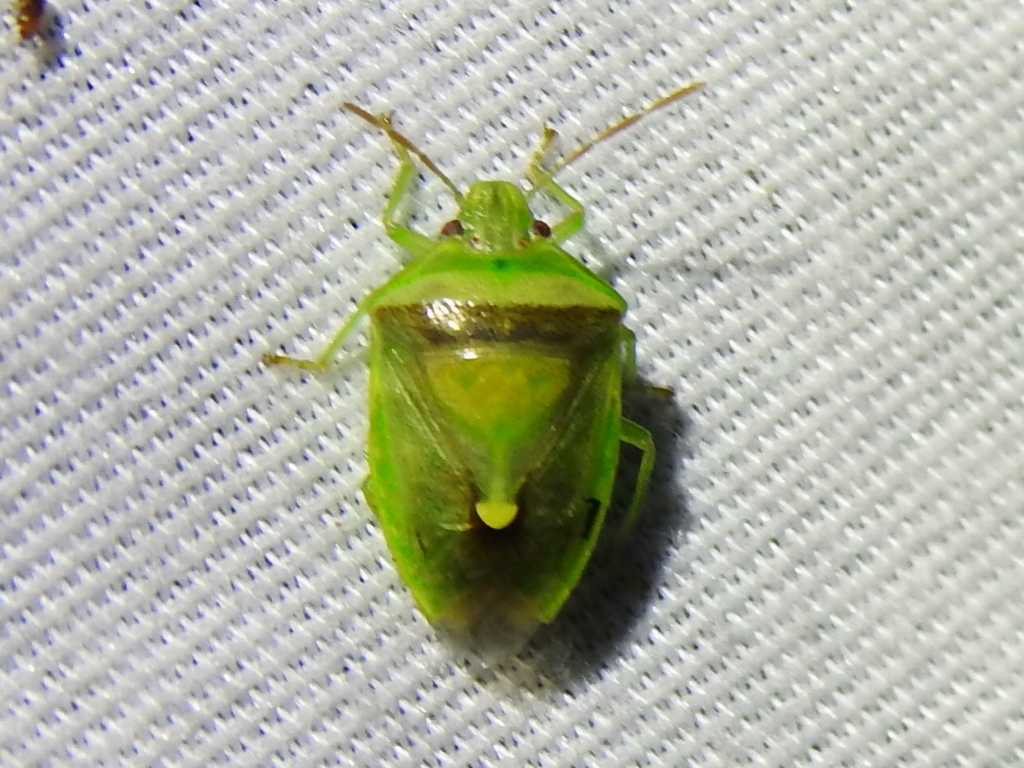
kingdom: Animalia
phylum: Arthropoda
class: Insecta
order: Hemiptera
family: Pentatomidae
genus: Banasa
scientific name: Banasa dimidiata
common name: Green burgundy stink bug
